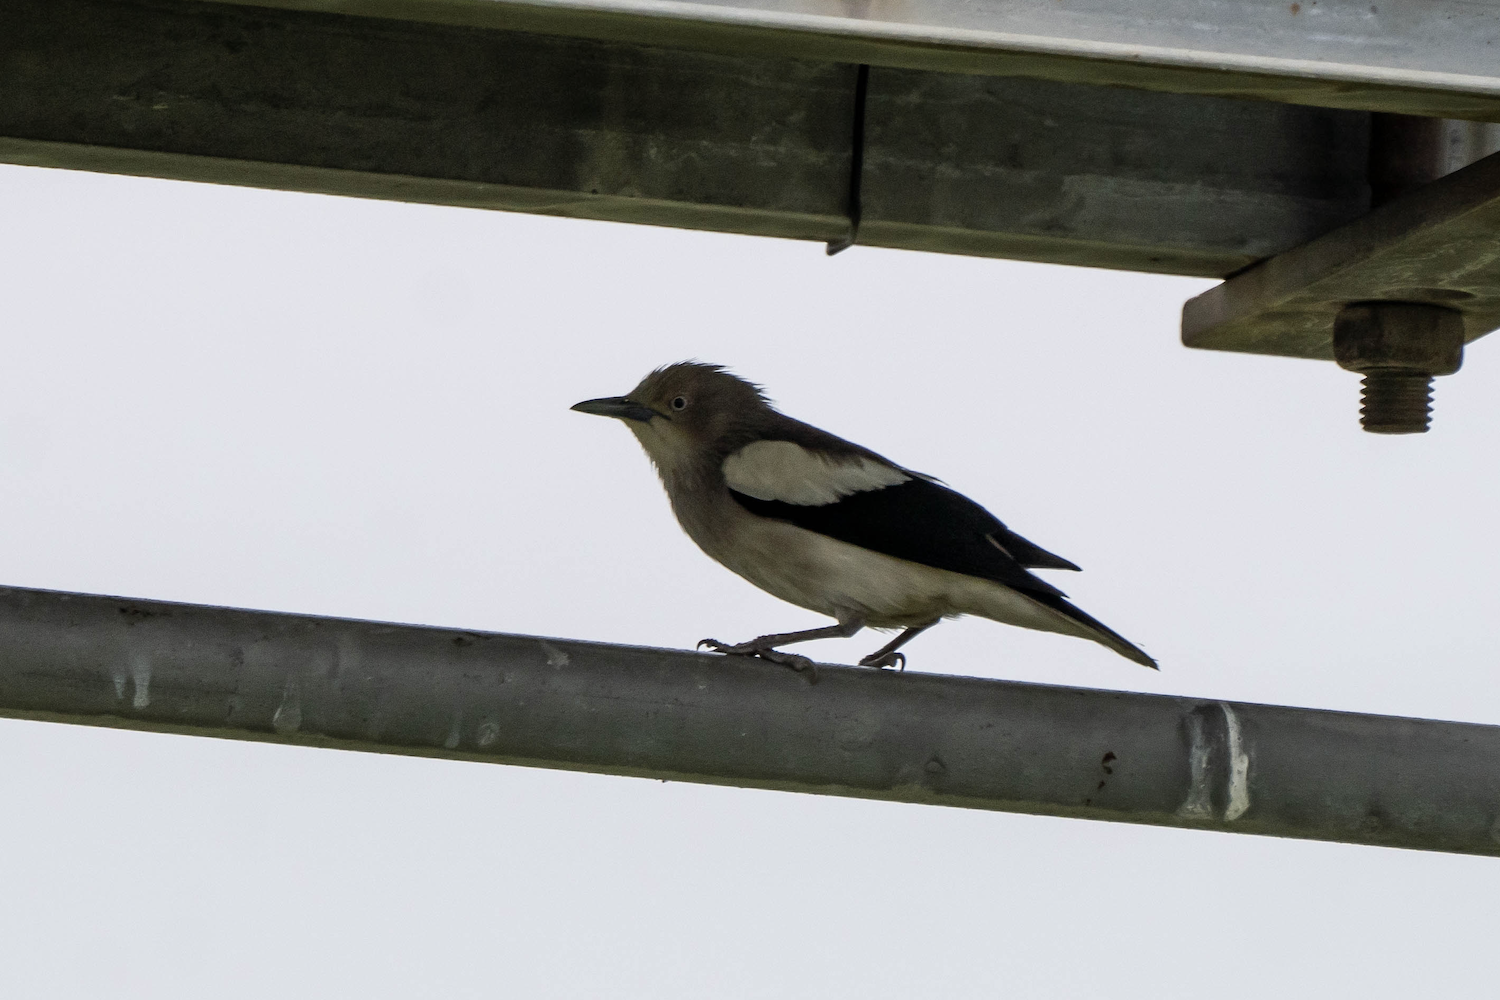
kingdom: Animalia
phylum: Chordata
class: Aves
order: Passeriformes
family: Sturnidae
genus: Sturnia
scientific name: Sturnia sinensis
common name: White-shouldered starling
